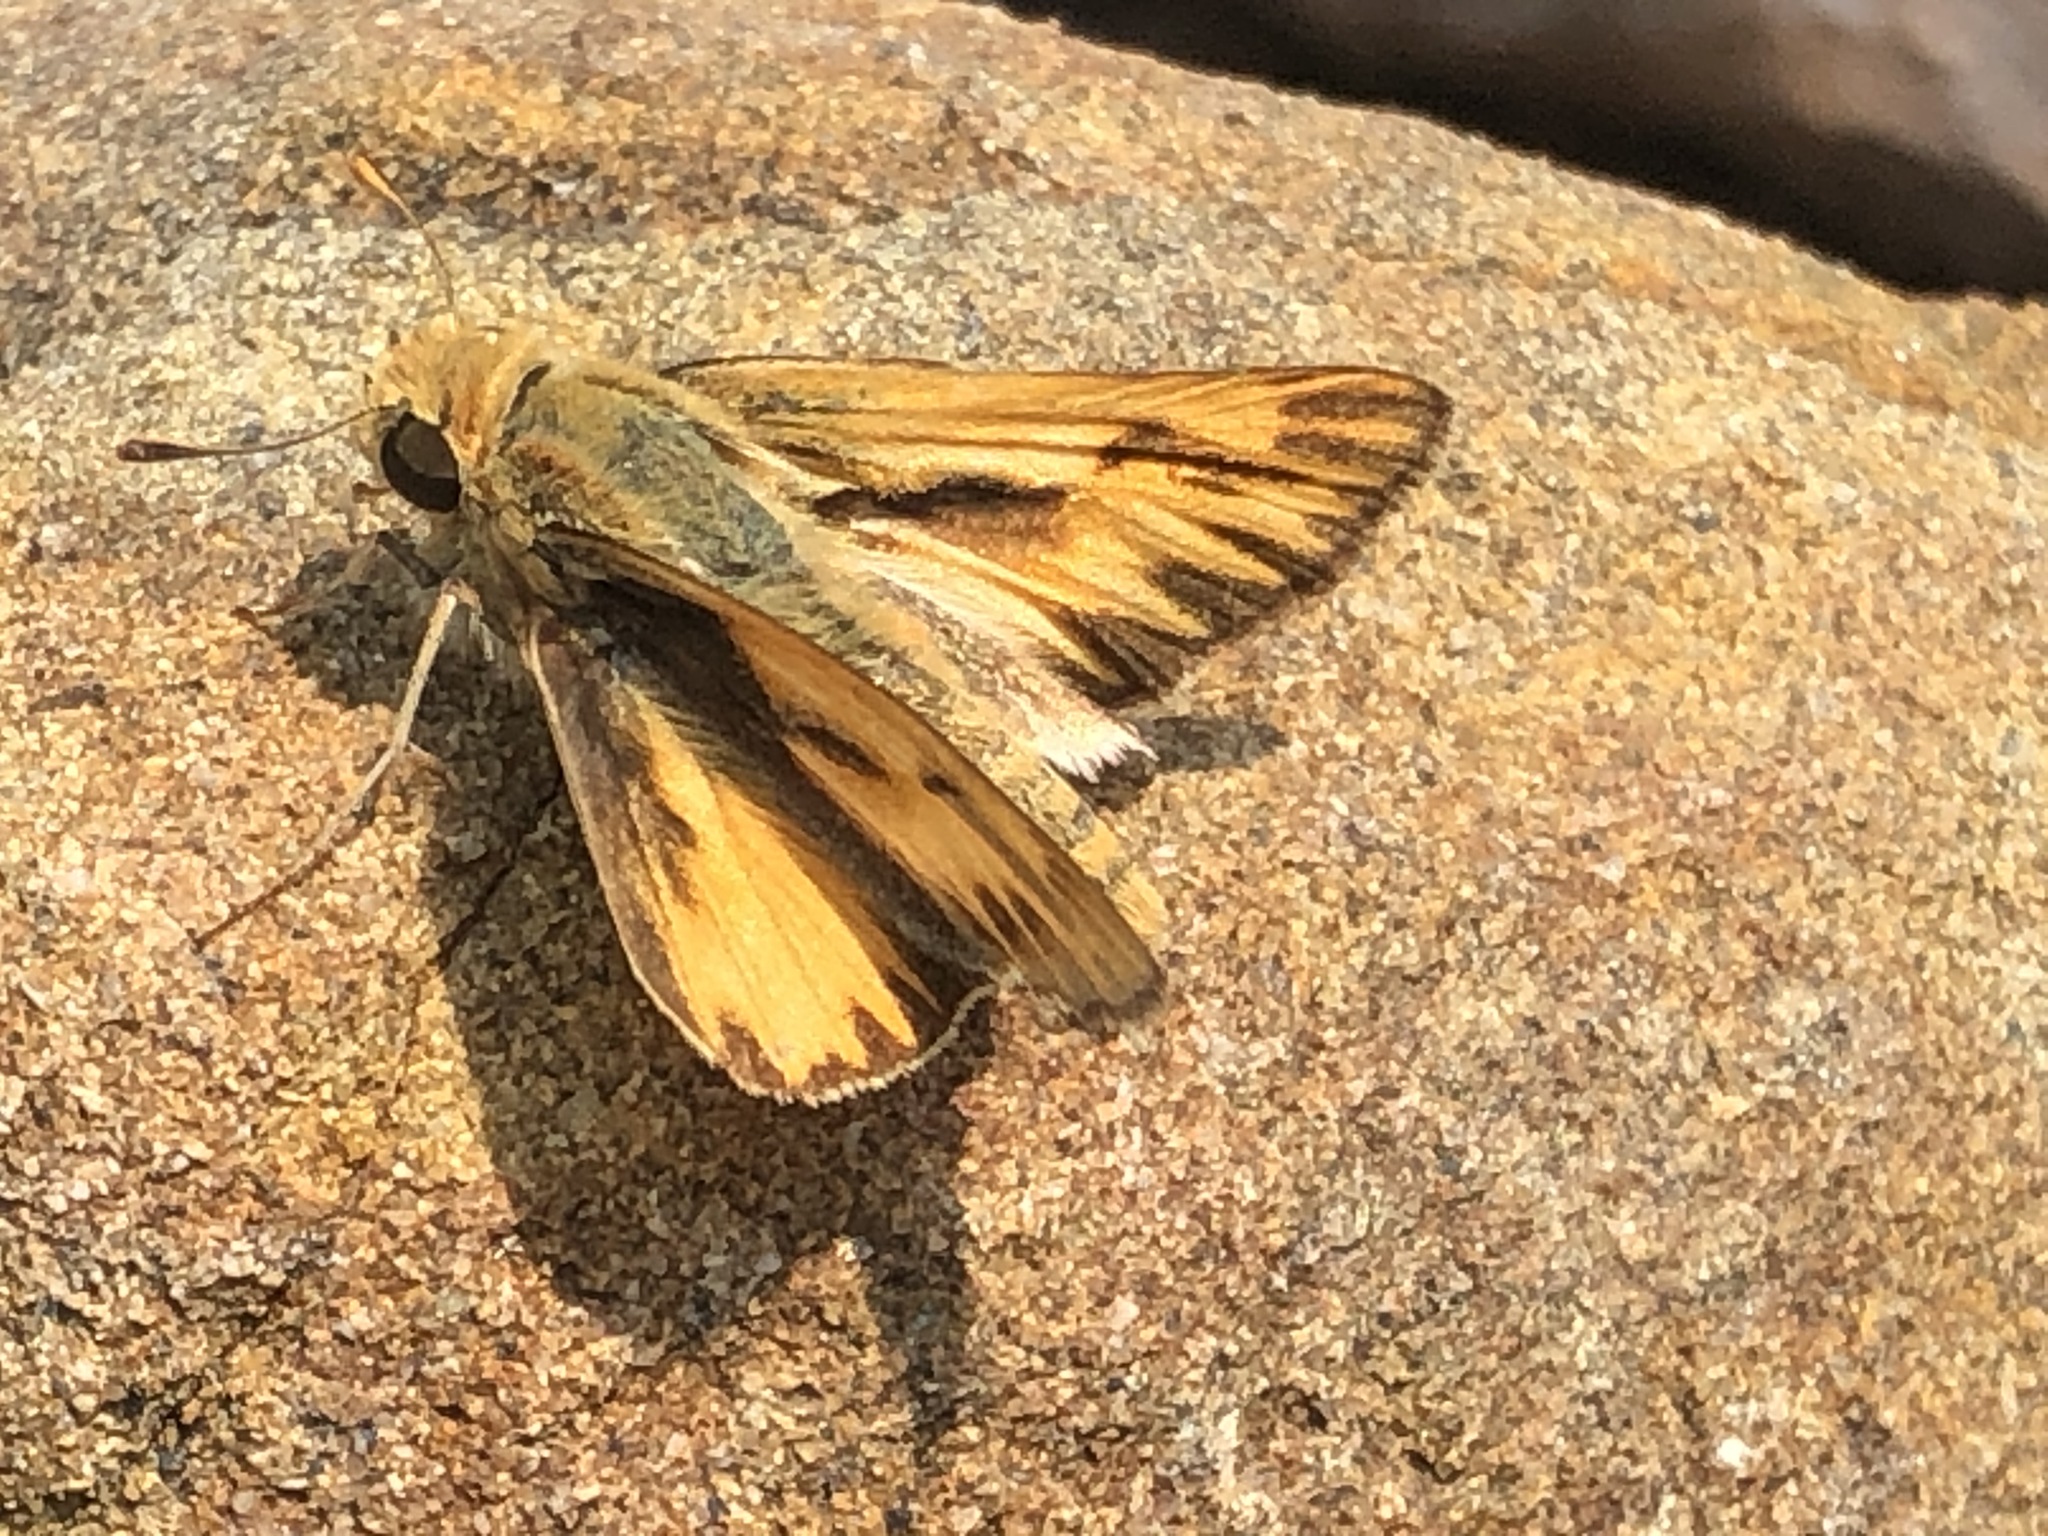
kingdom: Animalia
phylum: Arthropoda
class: Insecta
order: Lepidoptera
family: Hesperiidae
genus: Polites
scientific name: Polites sabuleti
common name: Sandhill skipper
